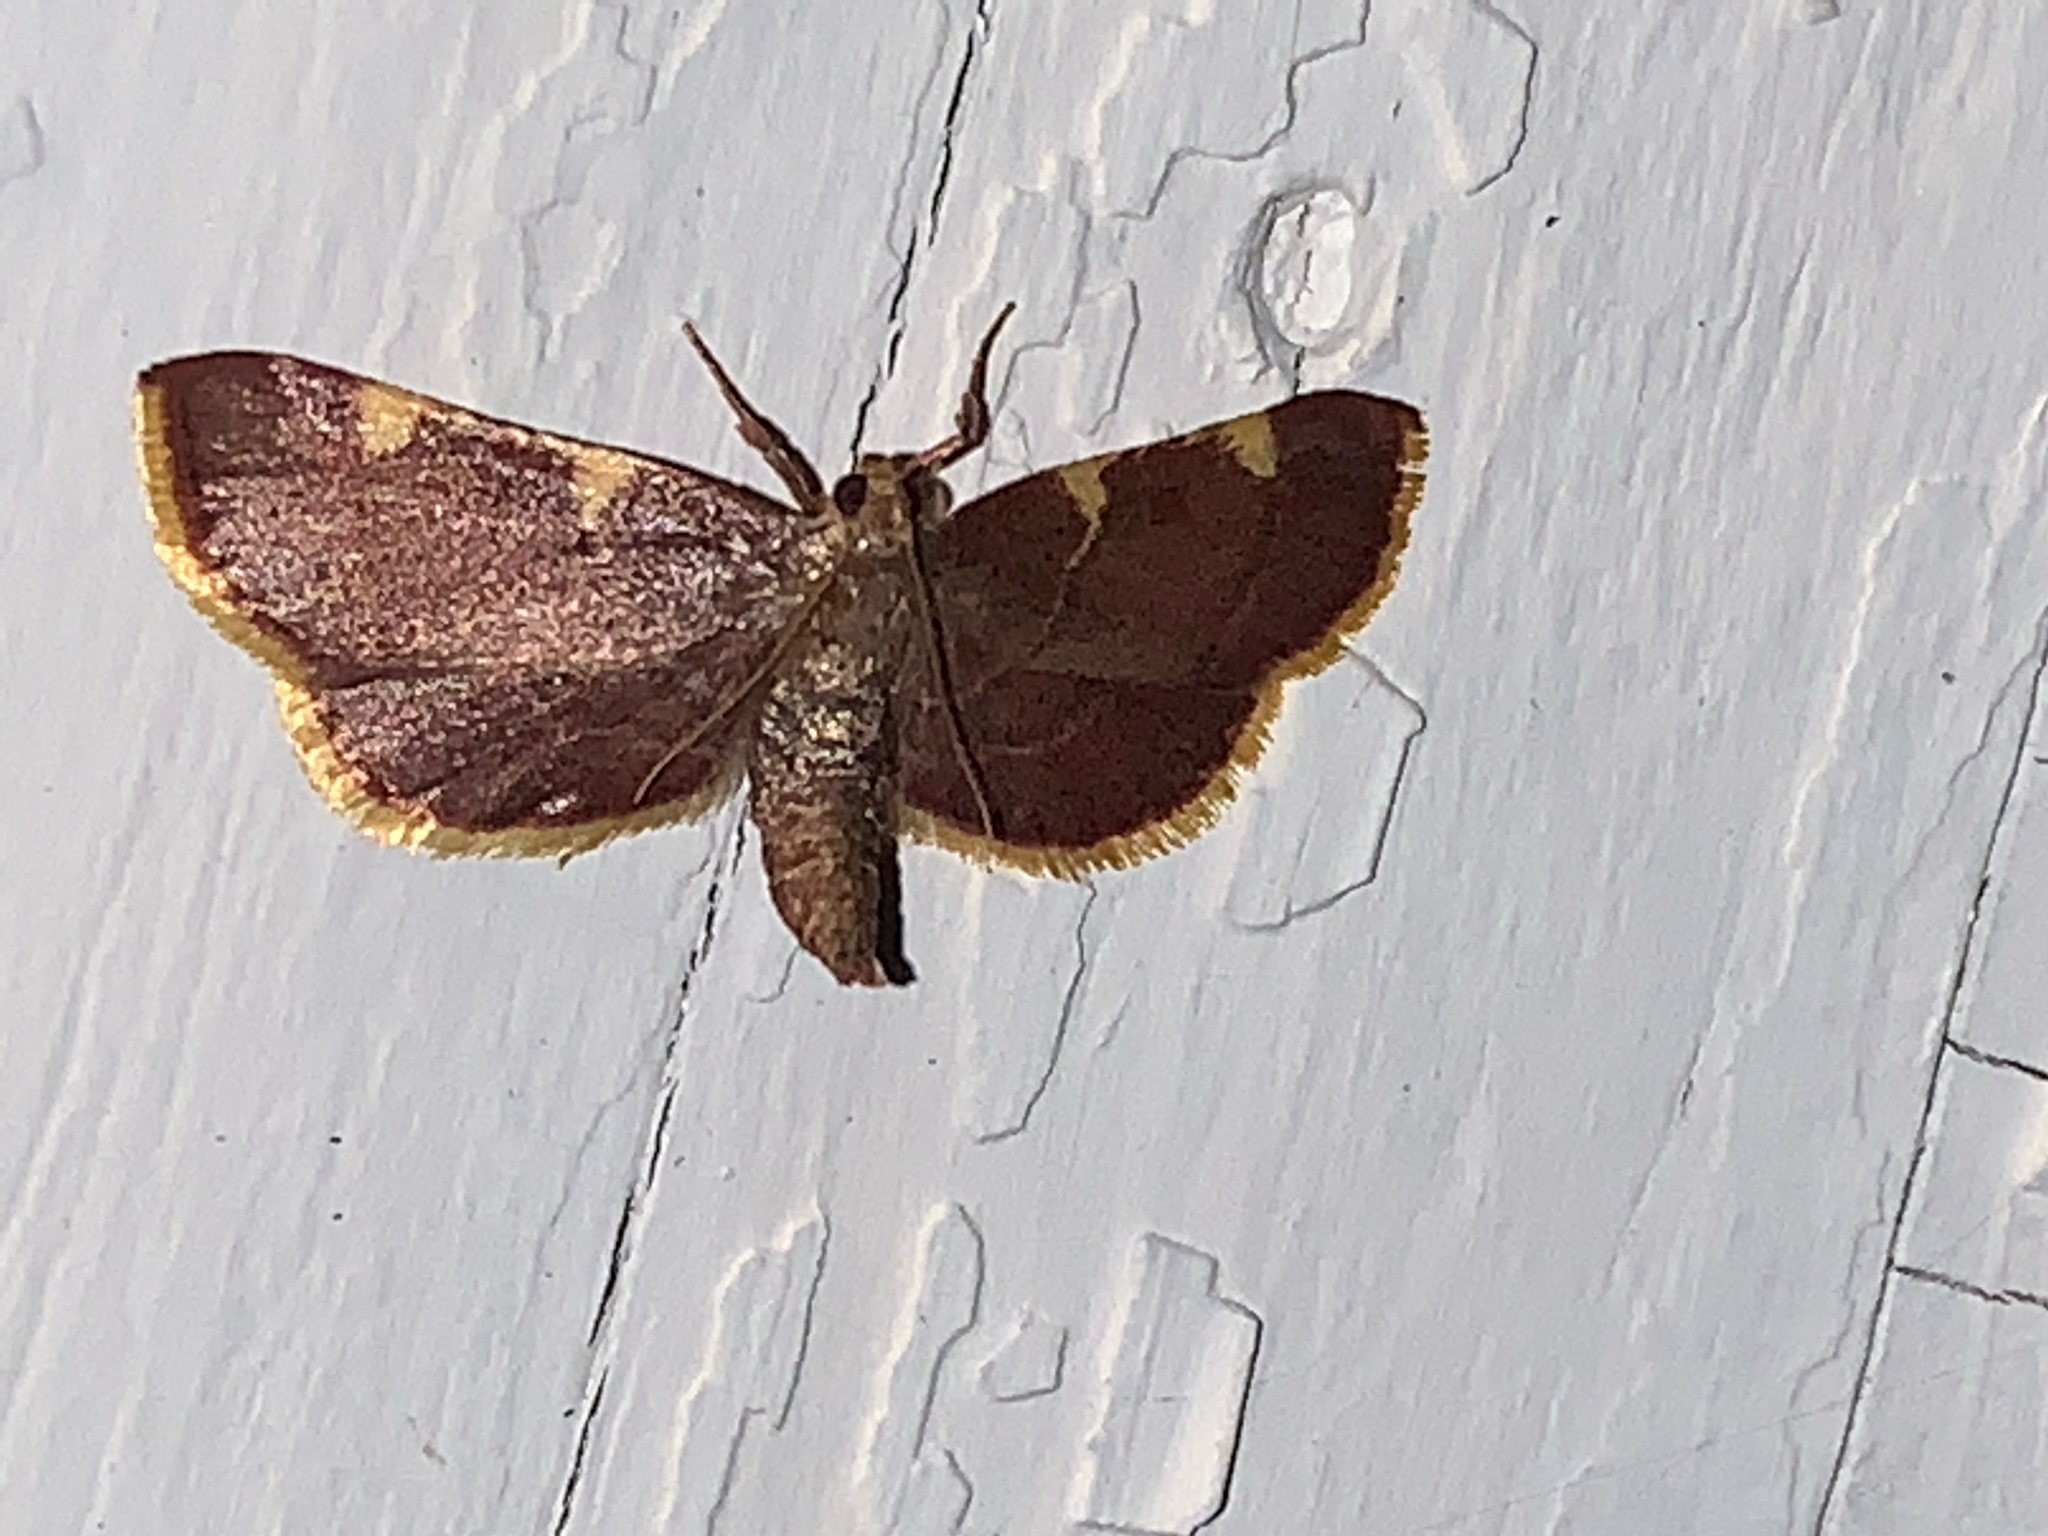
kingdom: Animalia
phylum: Arthropoda
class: Insecta
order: Lepidoptera
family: Pyralidae
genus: Hypsopygia
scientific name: Hypsopygia olinalis
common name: Yellow-fringed dolichomia moth
